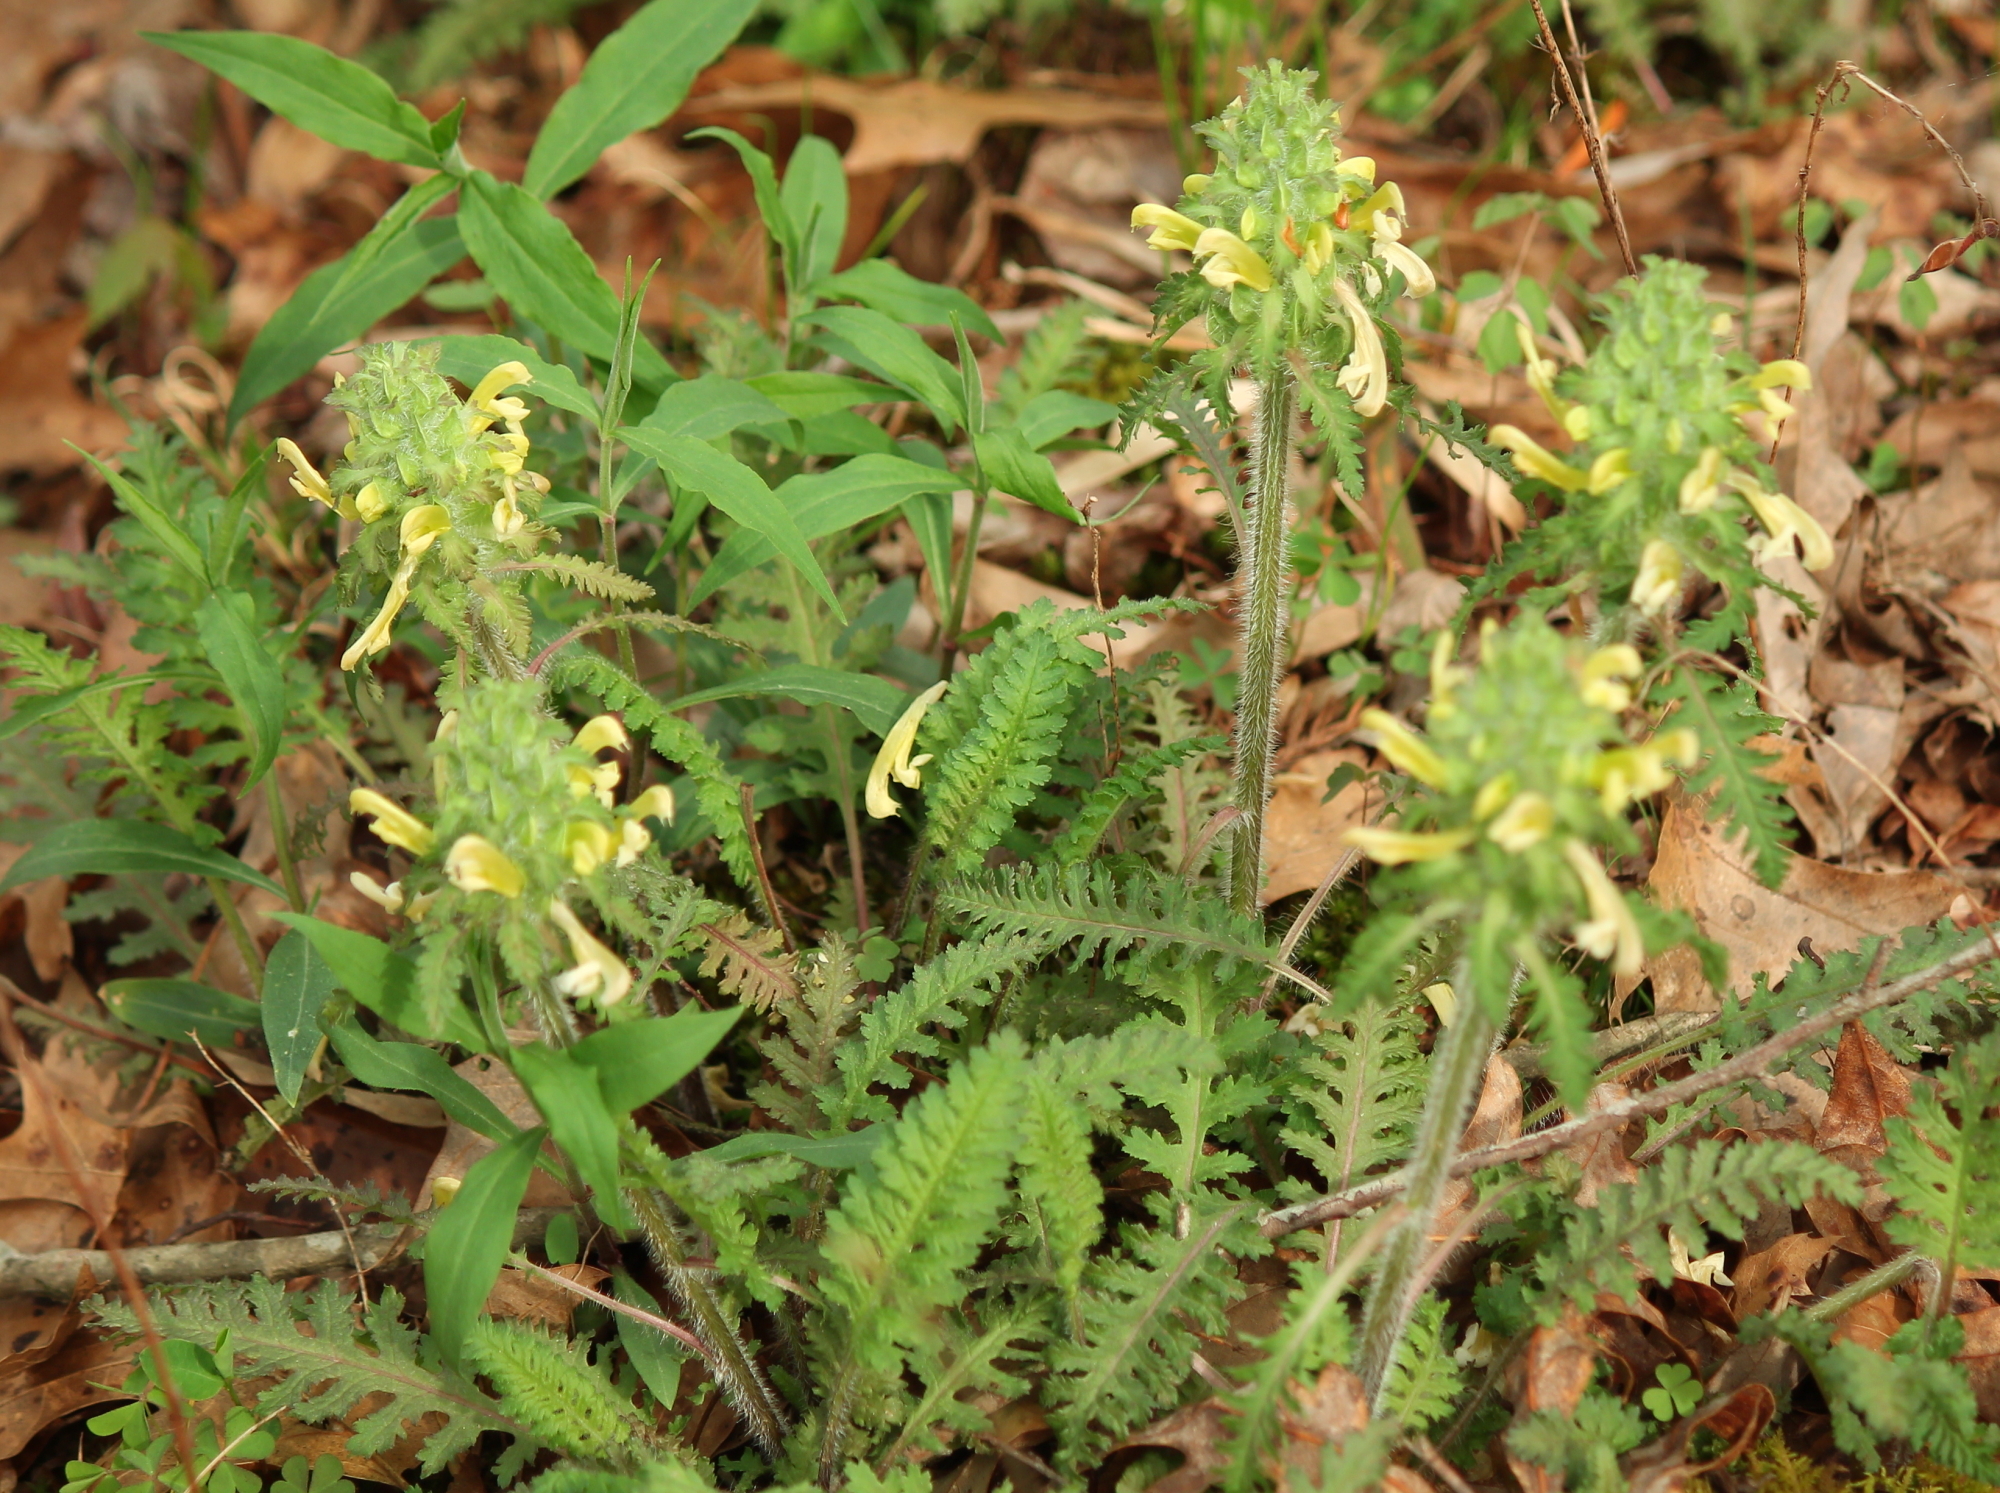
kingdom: Plantae
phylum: Tracheophyta
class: Magnoliopsida
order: Lamiales
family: Orobanchaceae
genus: Pedicularis
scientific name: Pedicularis canadensis
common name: Early lousewort
